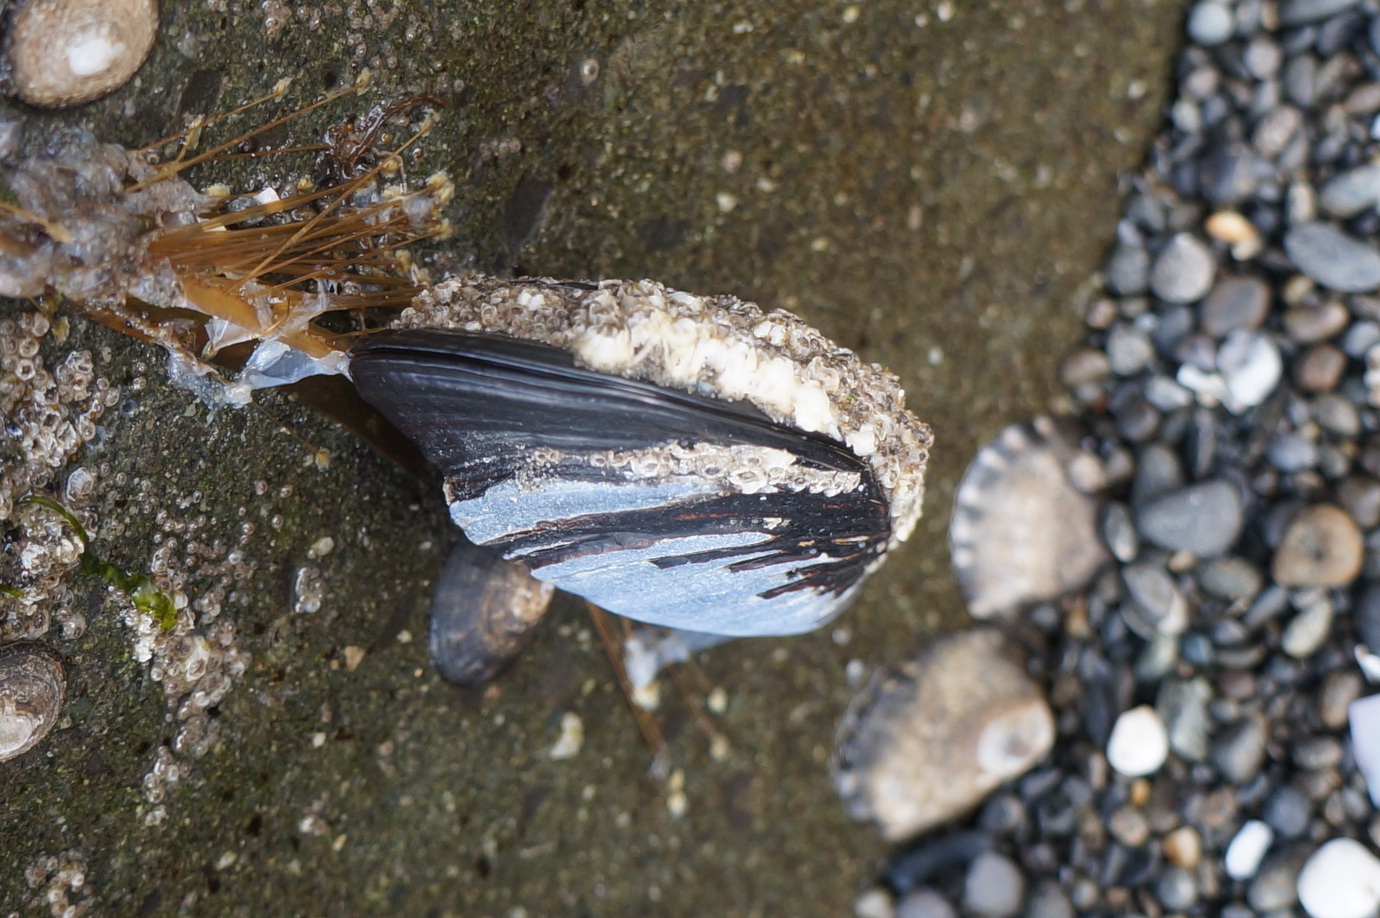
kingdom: Animalia
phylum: Mollusca
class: Bivalvia
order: Mytilida
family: Mytilidae
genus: Mytilus
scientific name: Mytilus californianus
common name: California mussel
